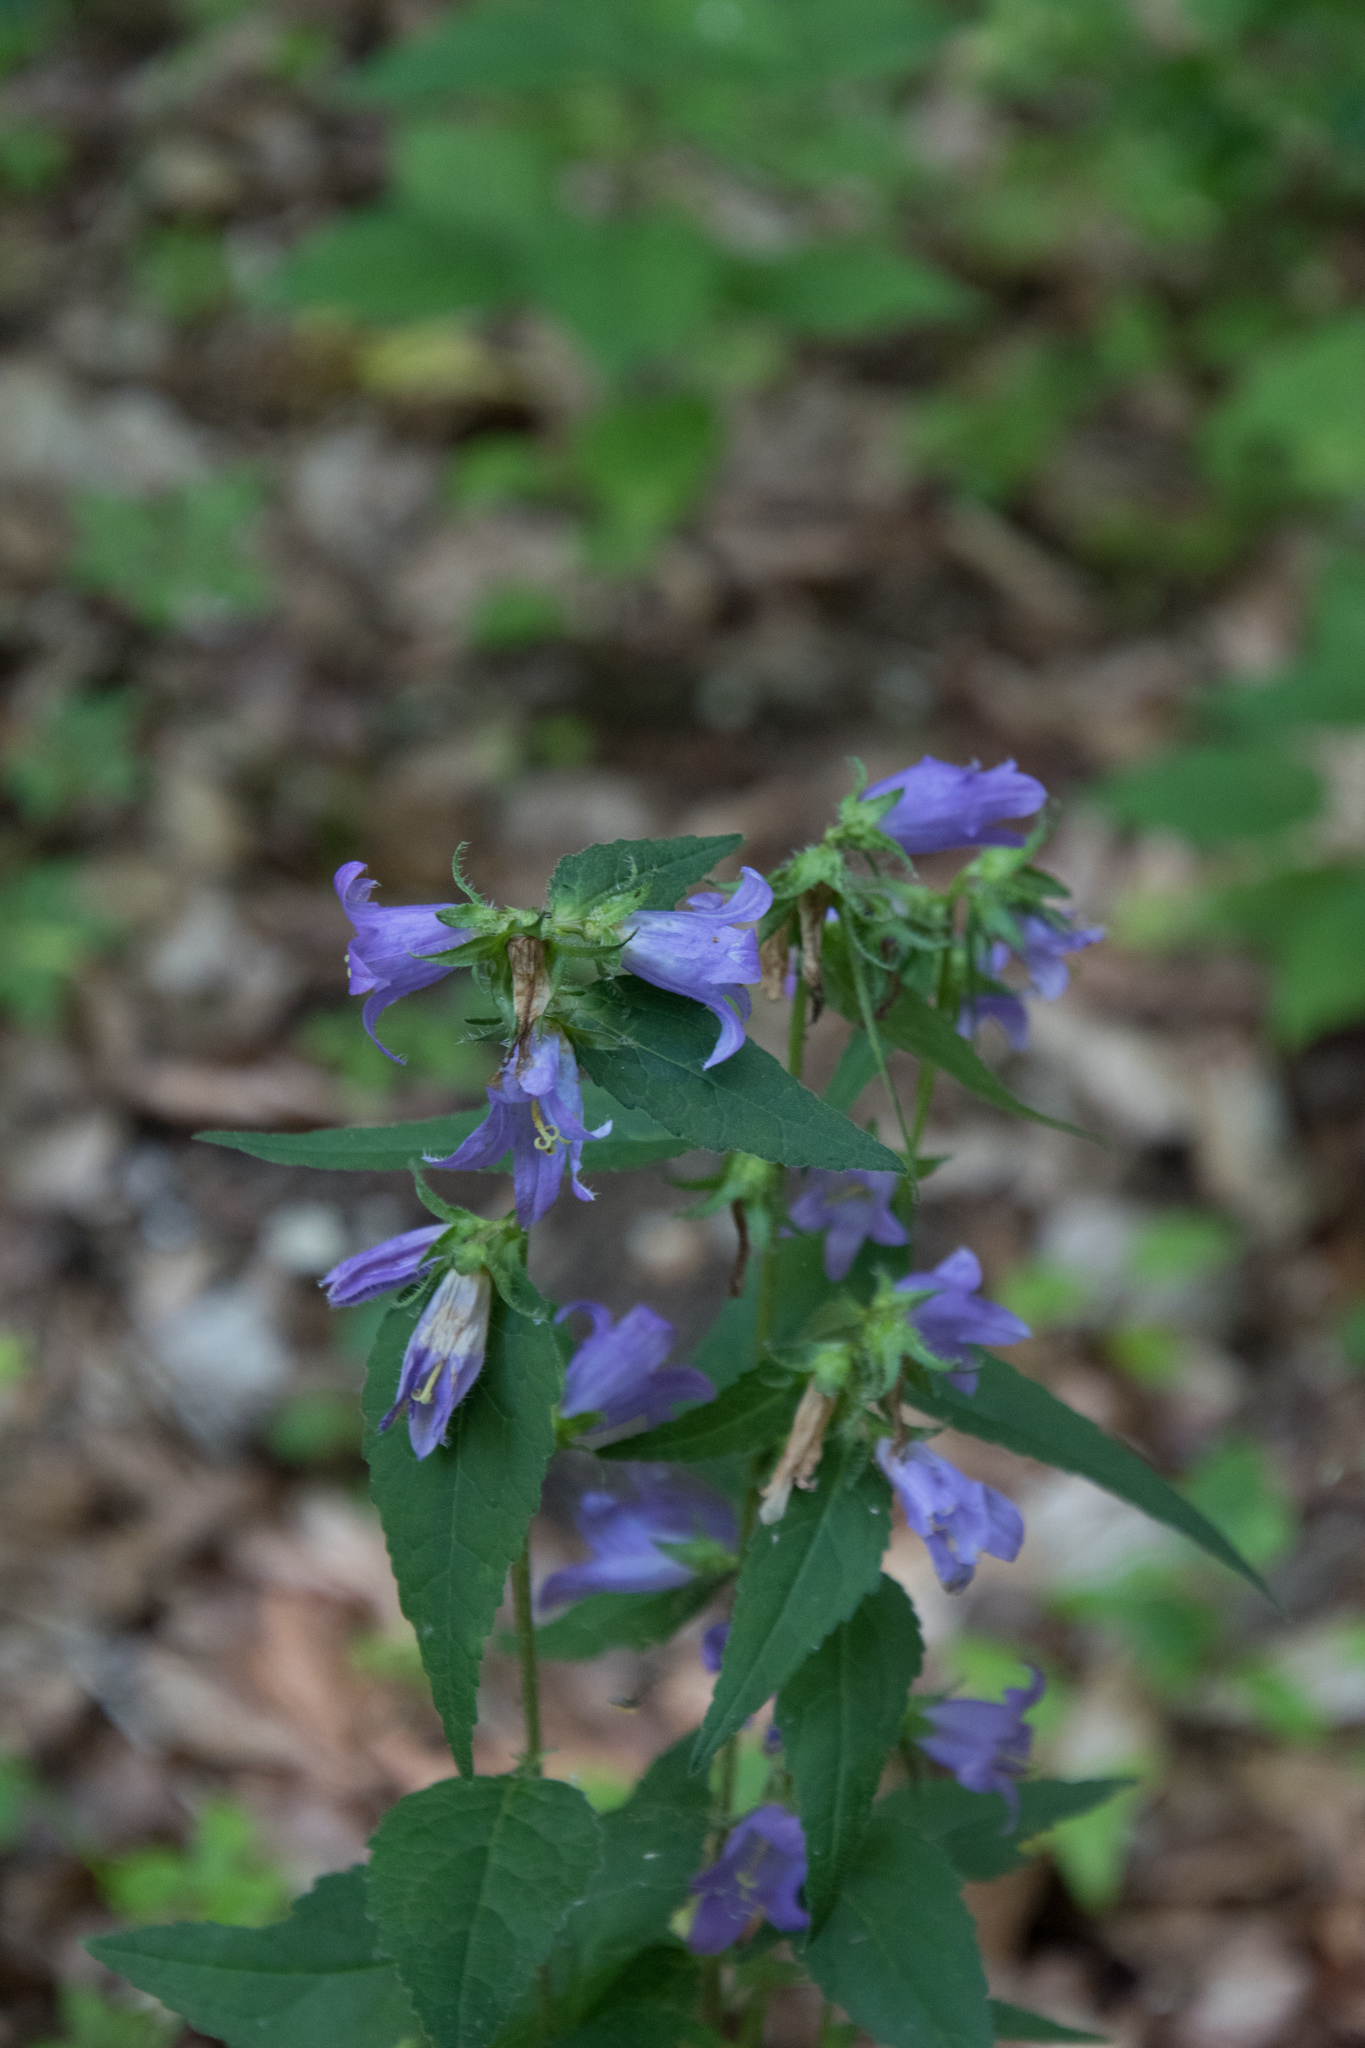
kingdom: Plantae
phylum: Tracheophyta
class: Magnoliopsida
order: Asterales
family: Campanulaceae
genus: Campanula
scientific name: Campanula trachelium
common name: Nettle-leaved bellflower
